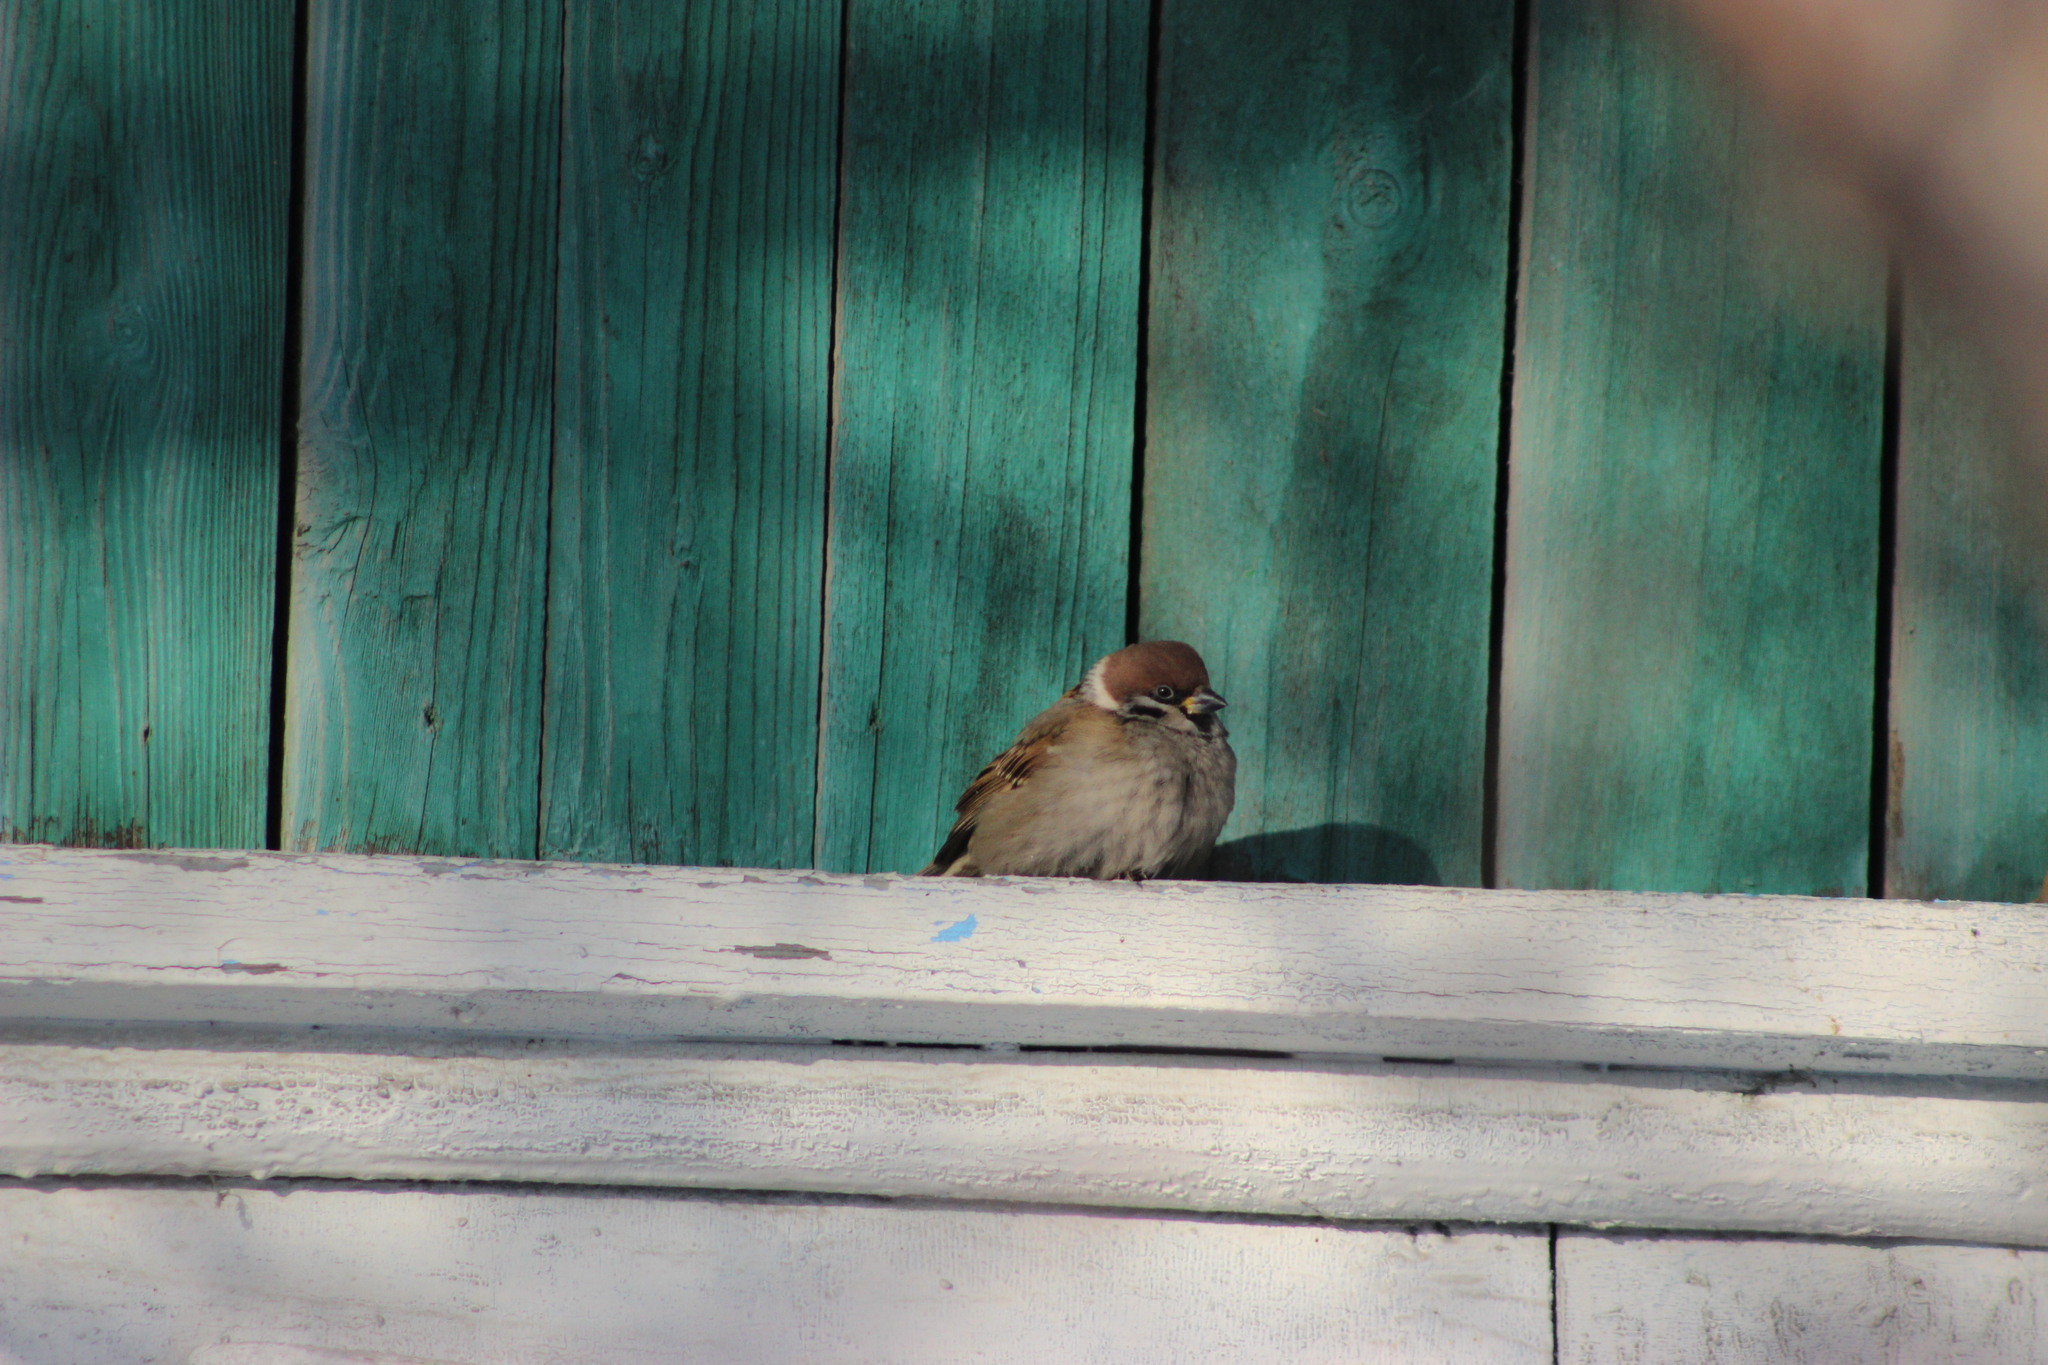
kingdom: Animalia
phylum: Chordata
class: Aves
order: Passeriformes
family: Passeridae
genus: Passer
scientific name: Passer montanus
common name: Eurasian tree sparrow
